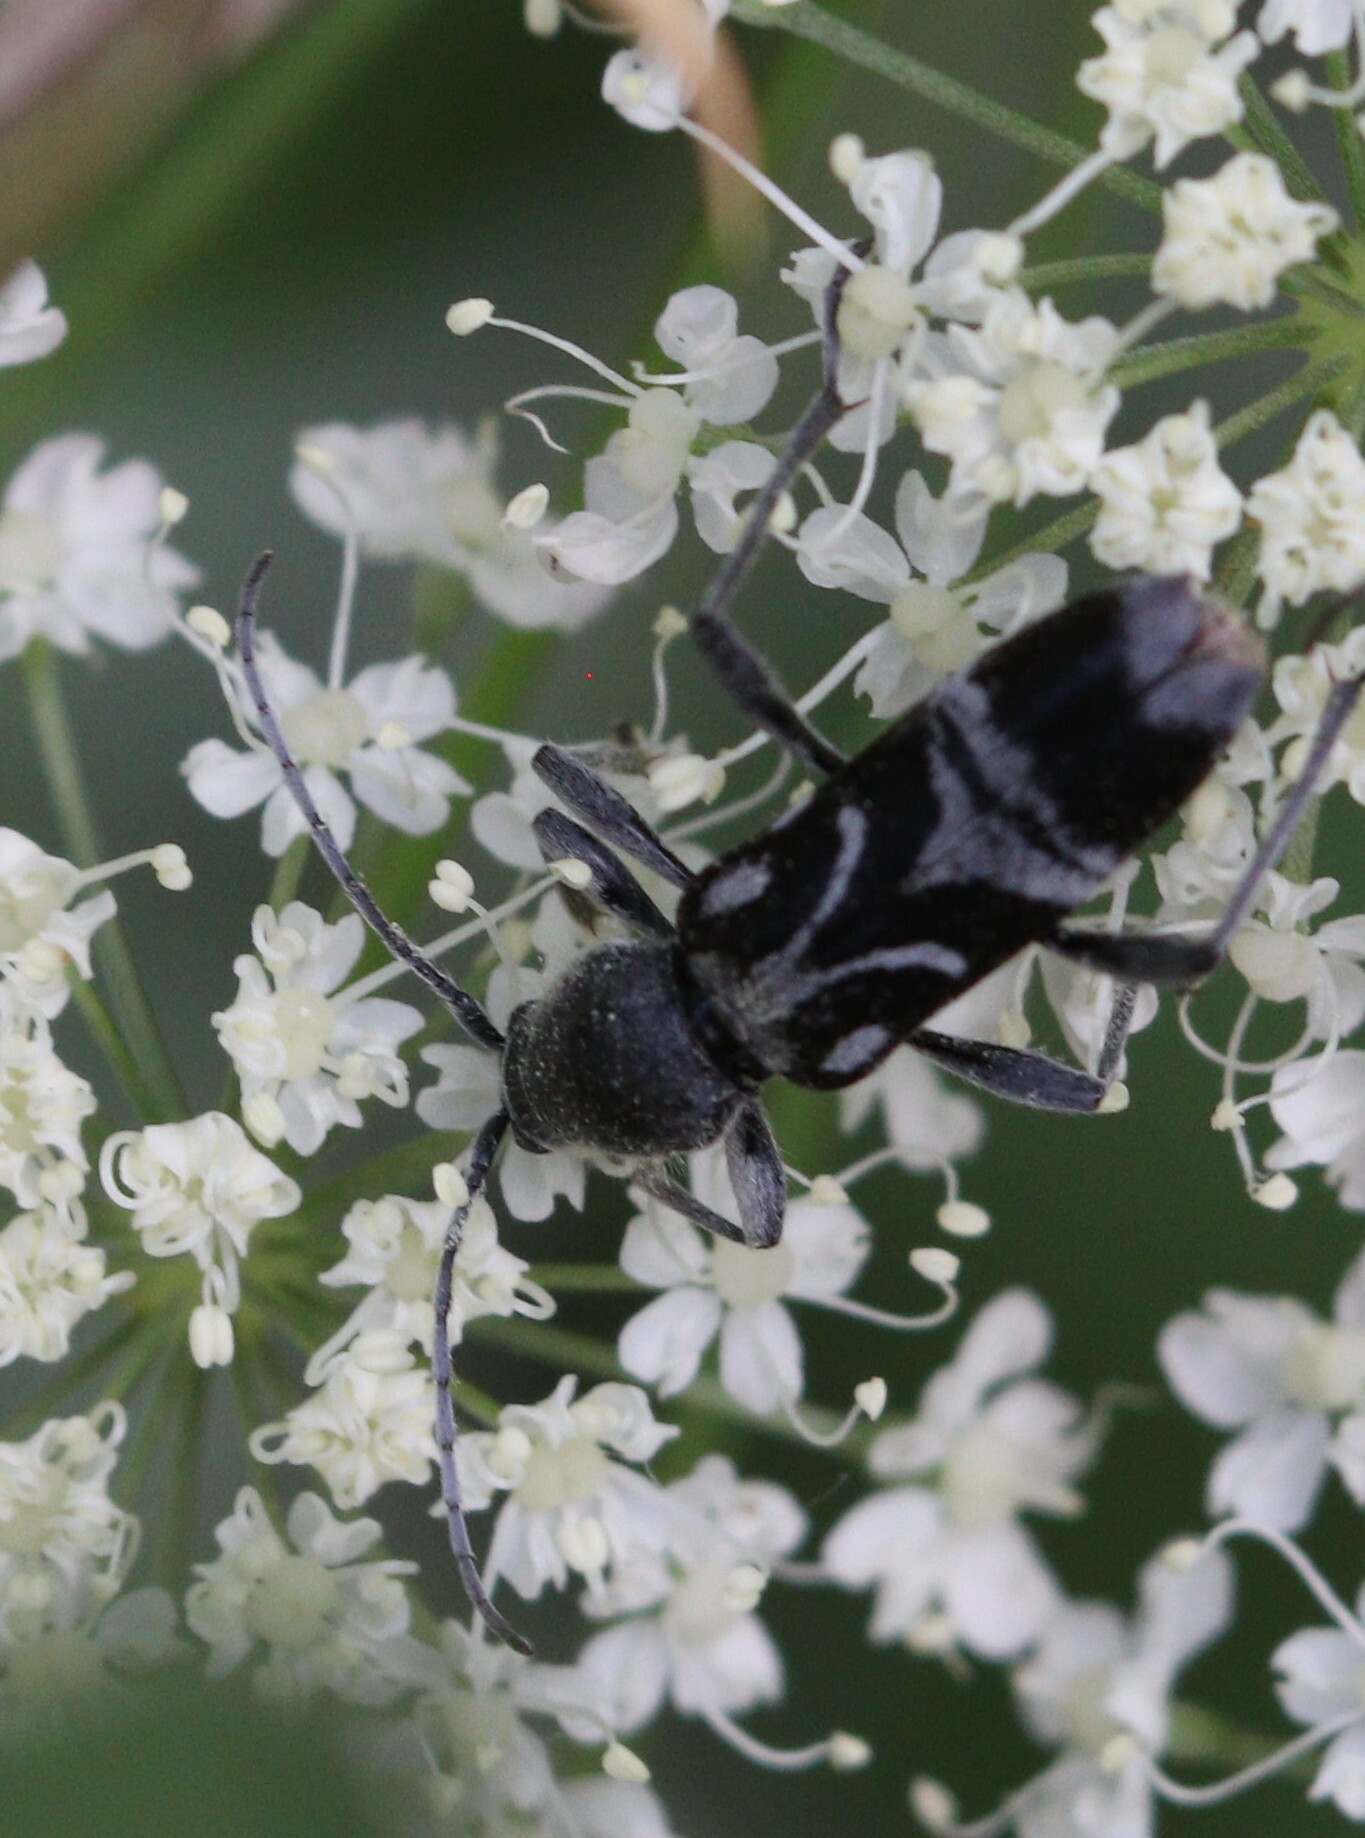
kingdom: Animalia
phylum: Arthropoda
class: Insecta
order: Coleoptera
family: Cerambycidae
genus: Chlorophorus
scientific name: Chlorophorus figuratus
